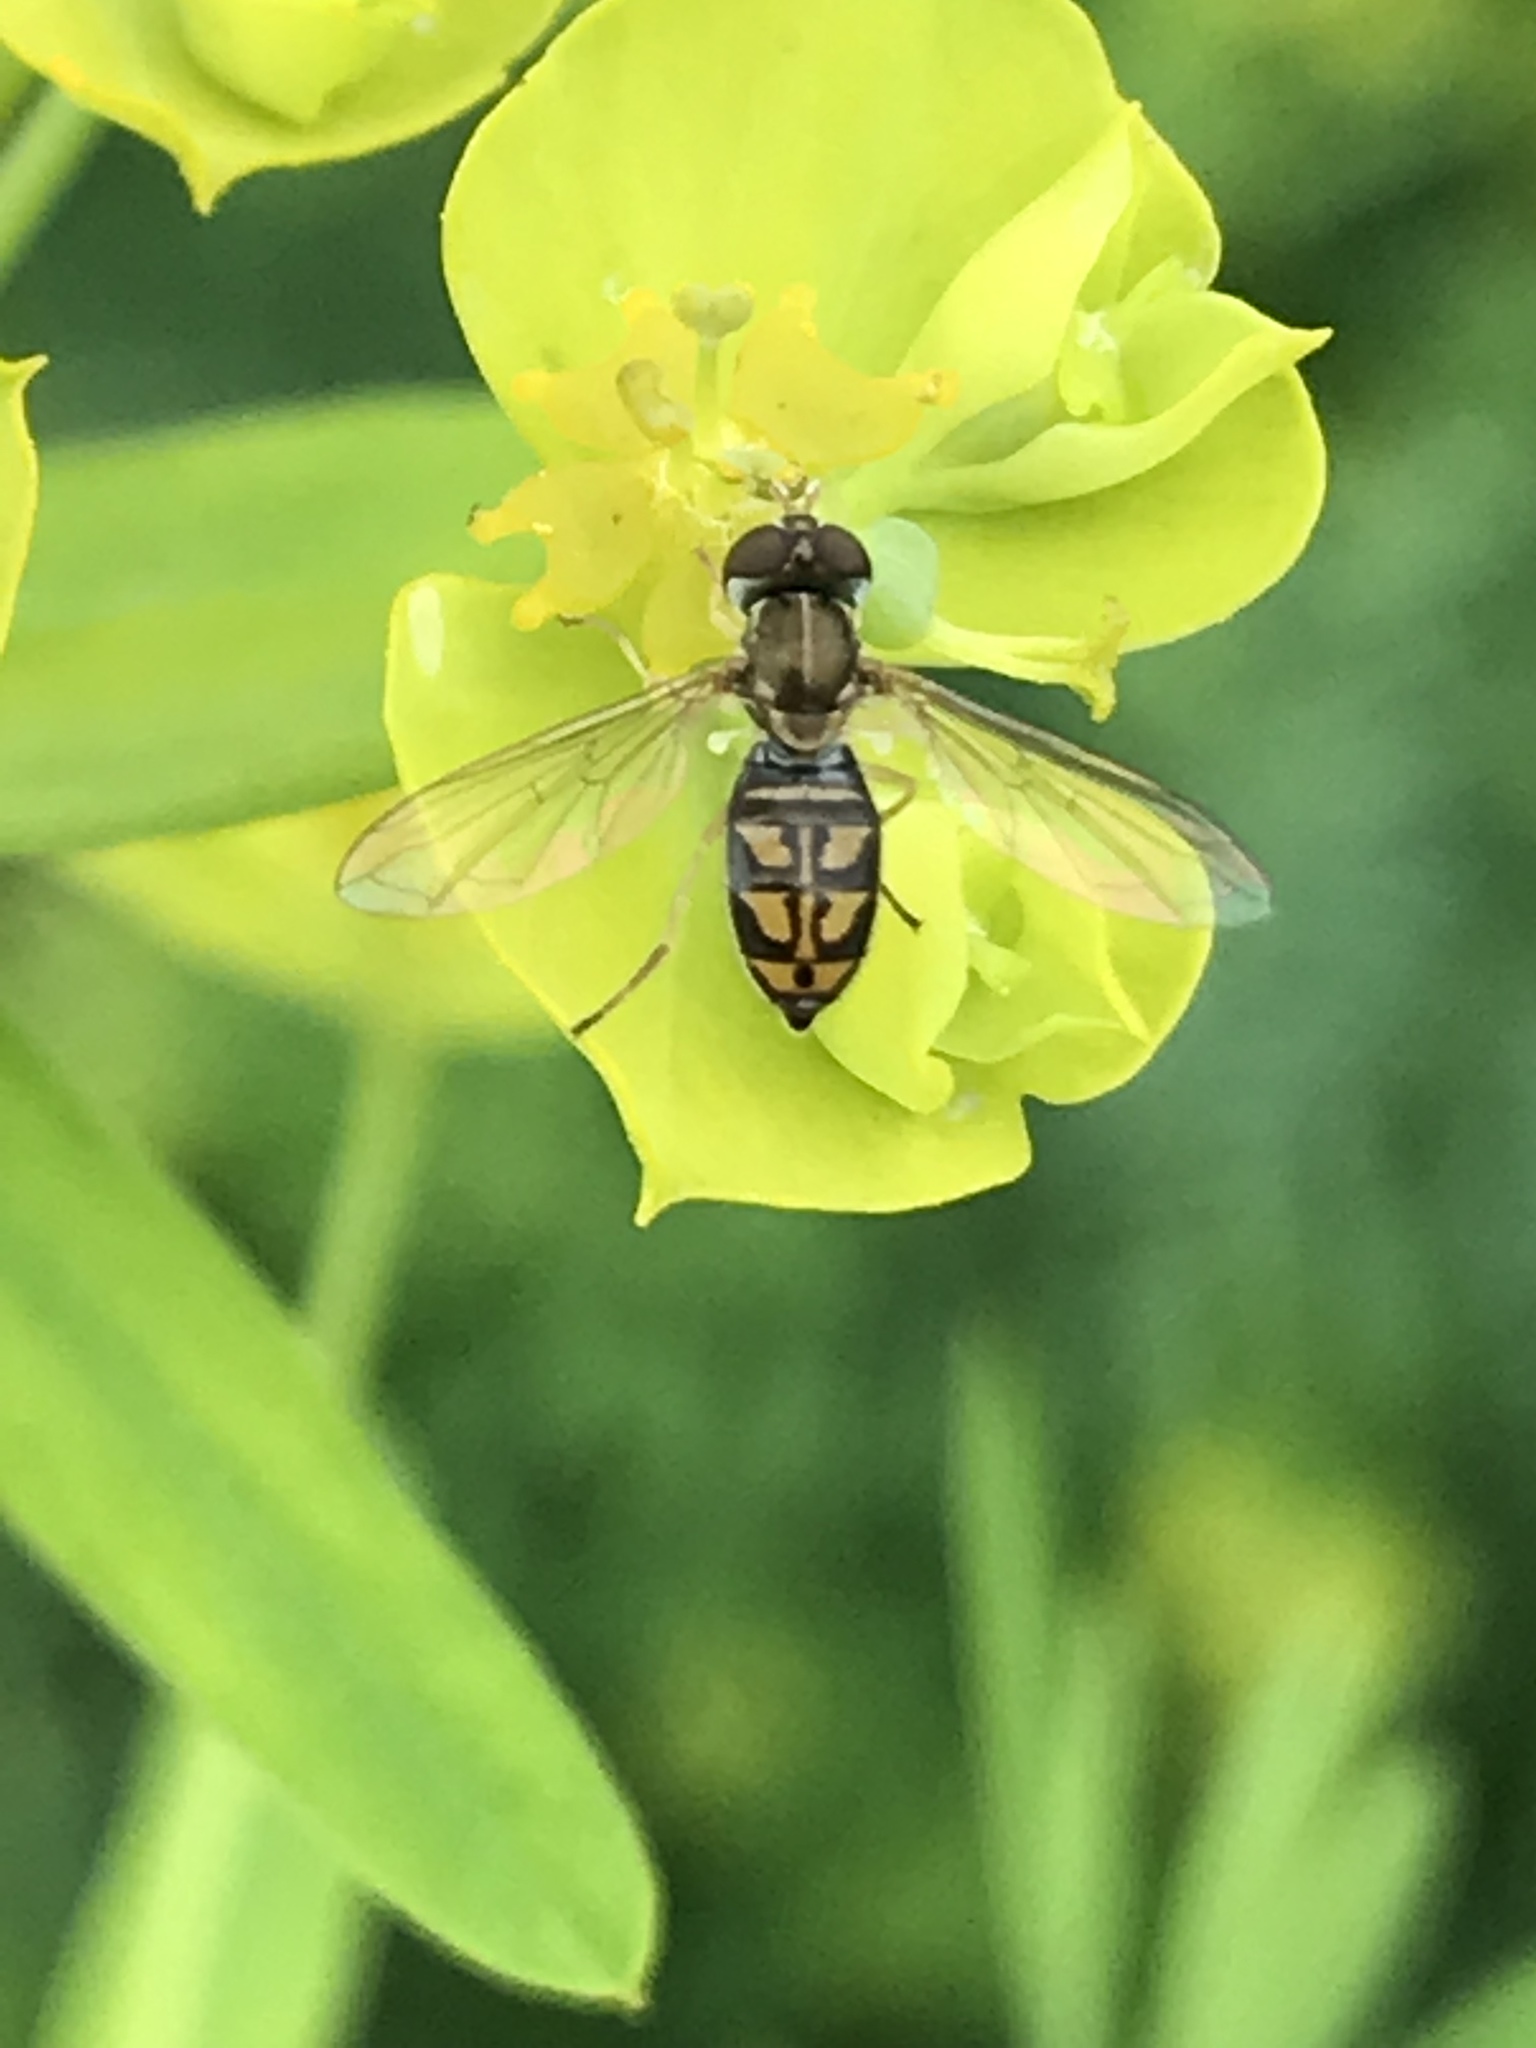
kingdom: Animalia
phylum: Arthropoda
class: Insecta
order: Diptera
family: Syrphidae
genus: Toxomerus
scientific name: Toxomerus marginatus
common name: Syrphid fly
